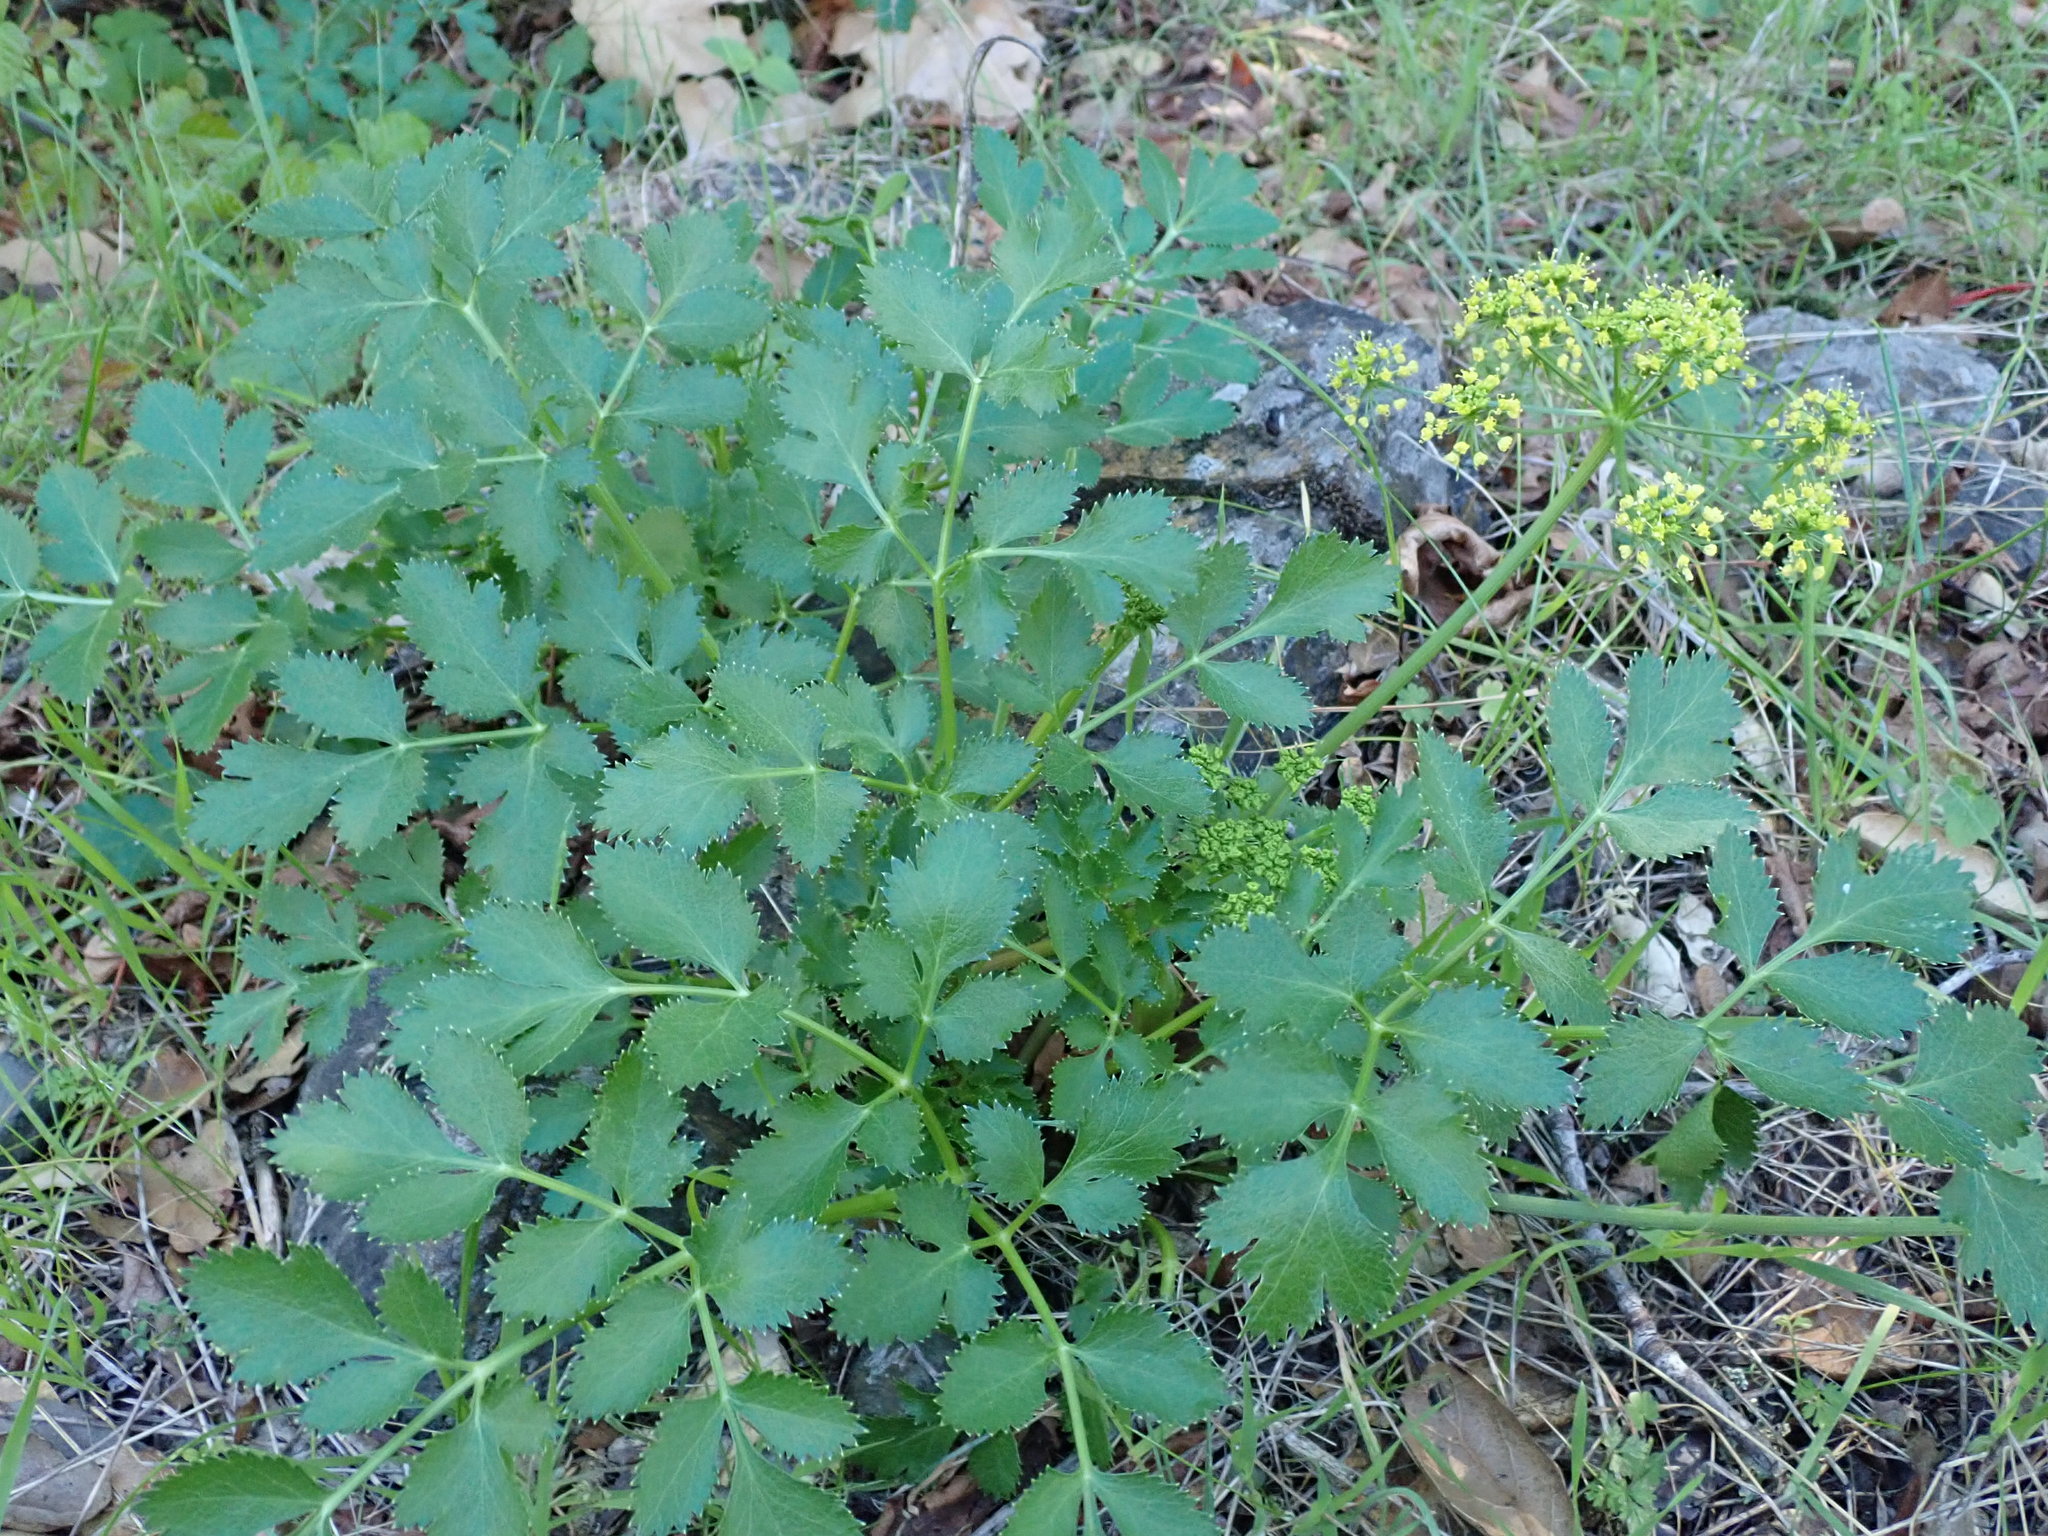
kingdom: Plantae
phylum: Tracheophyta
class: Magnoliopsida
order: Apiales
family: Apiaceae
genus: Tauschia
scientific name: Tauschia hartwegii
